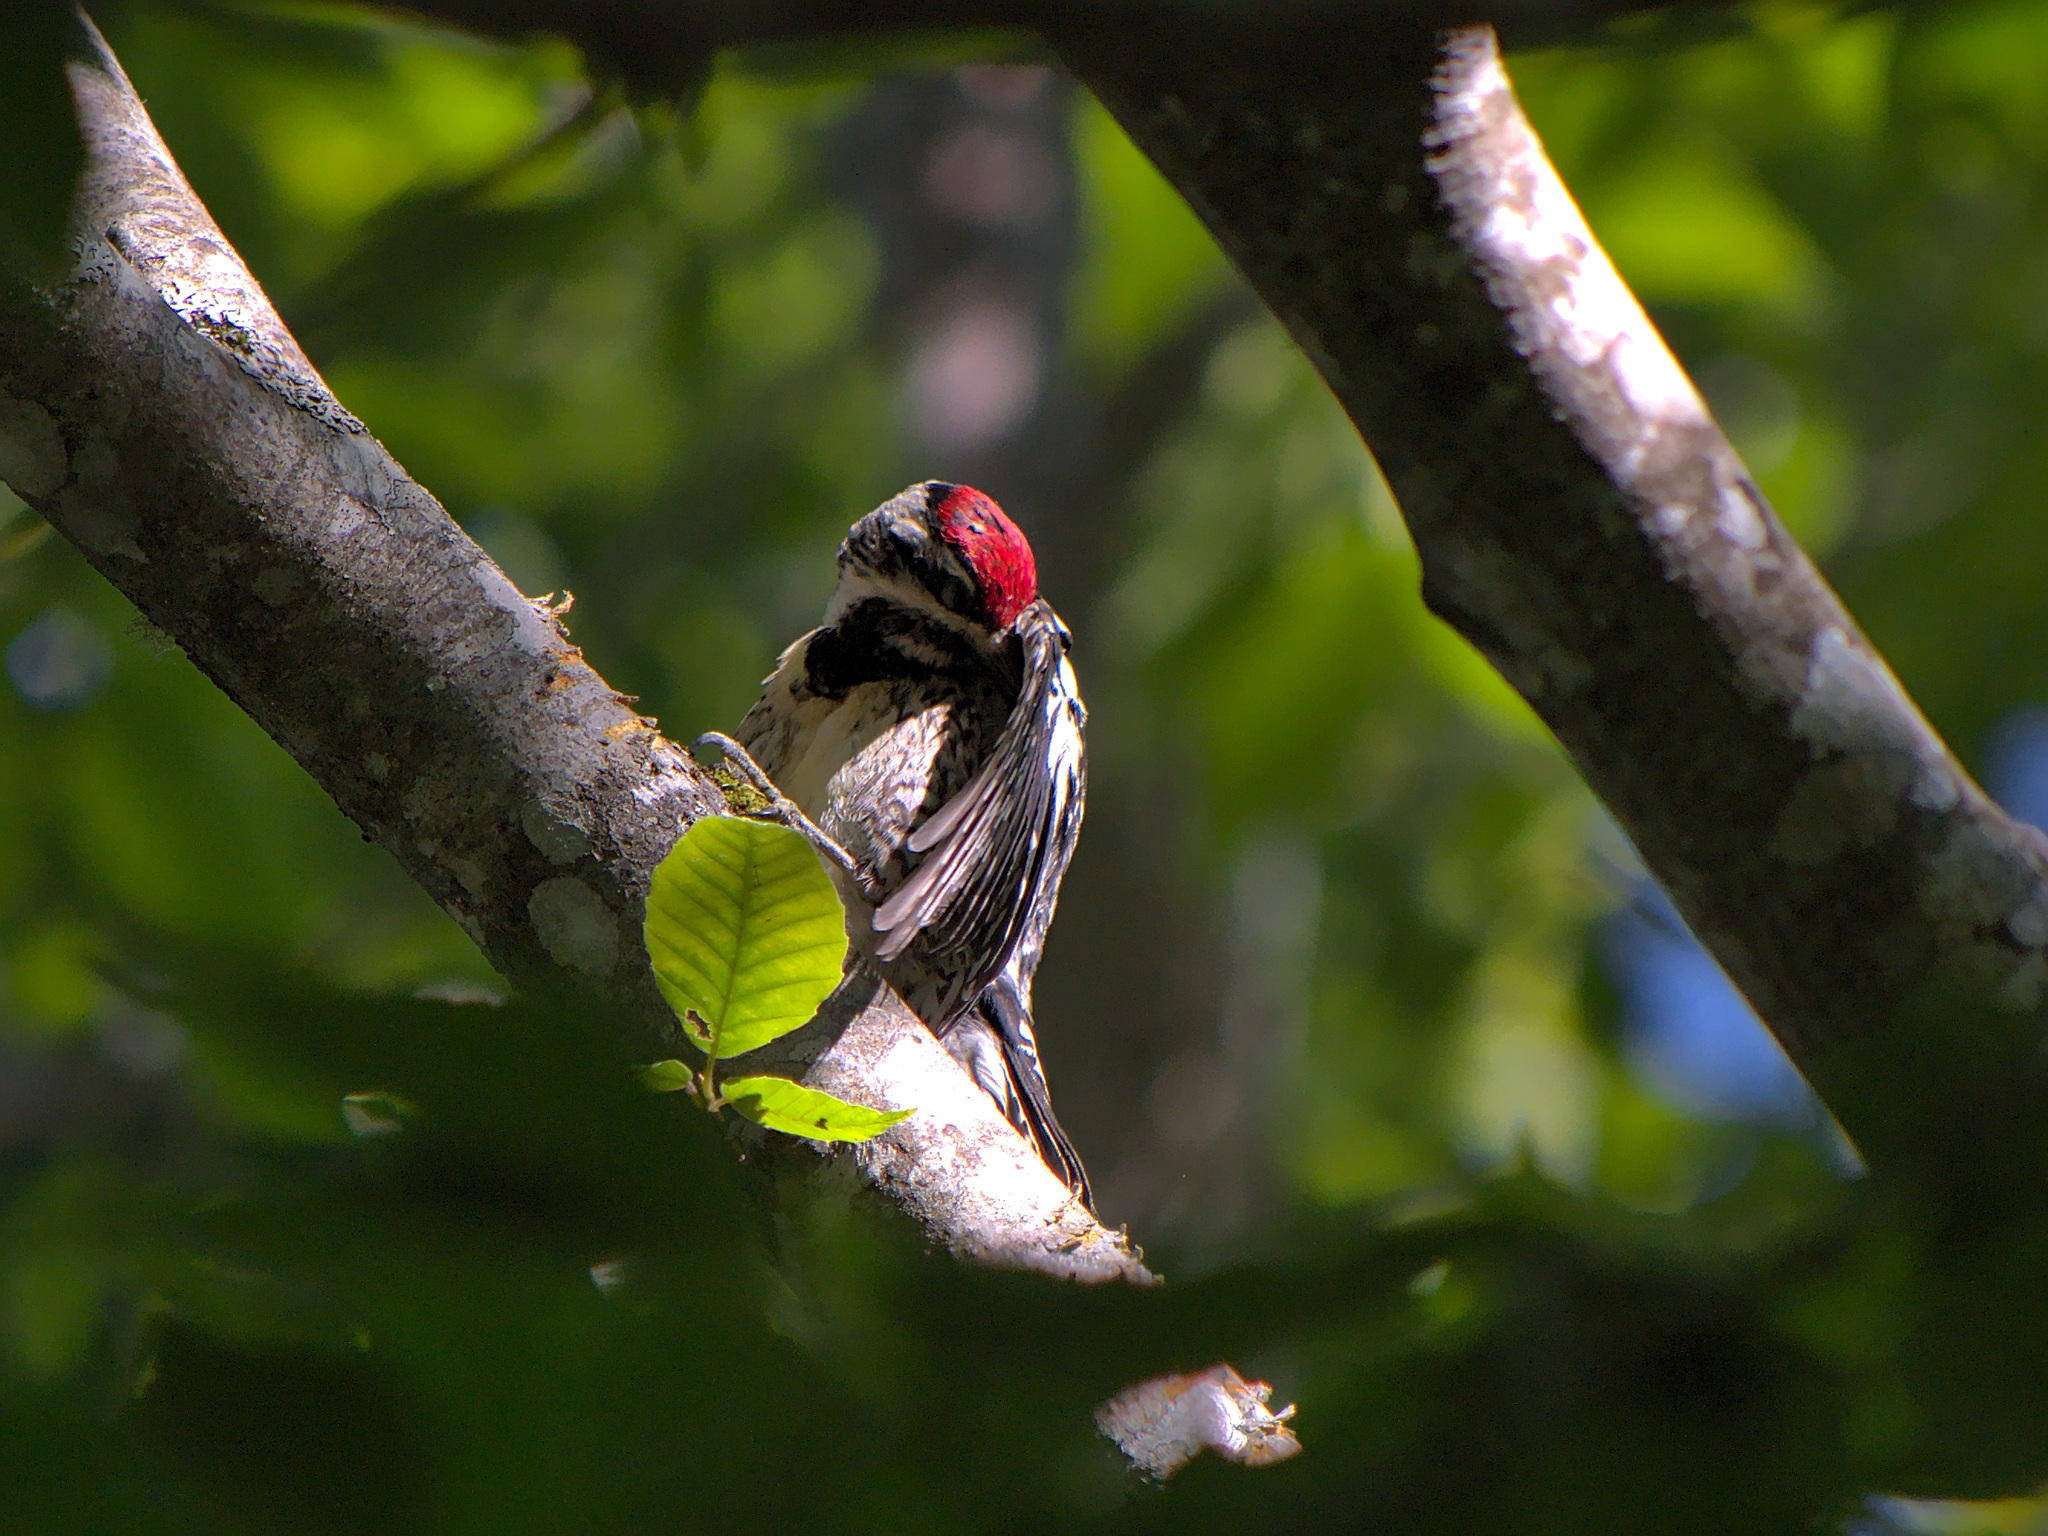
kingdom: Animalia
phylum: Chordata
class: Aves
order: Piciformes
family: Picidae
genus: Sphyrapicus
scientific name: Sphyrapicus varius
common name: Yellow-bellied sapsucker
